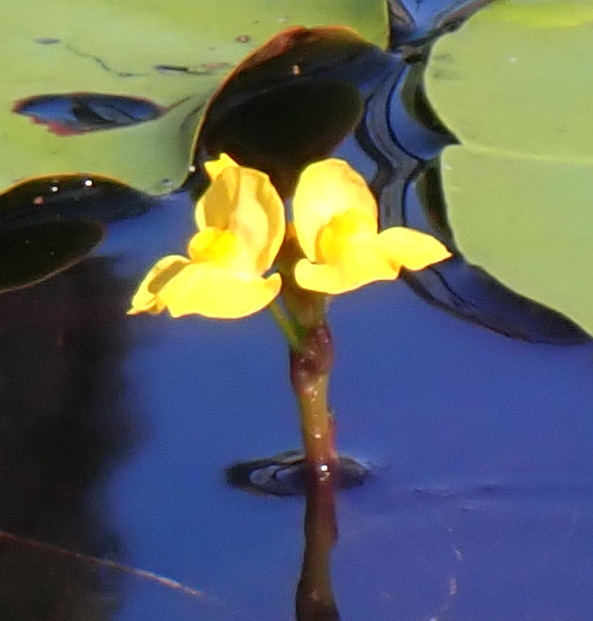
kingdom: Plantae
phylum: Tracheophyta
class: Magnoliopsida
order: Lamiales
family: Lentibulariaceae
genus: Utricularia
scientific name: Utricularia foliosa
